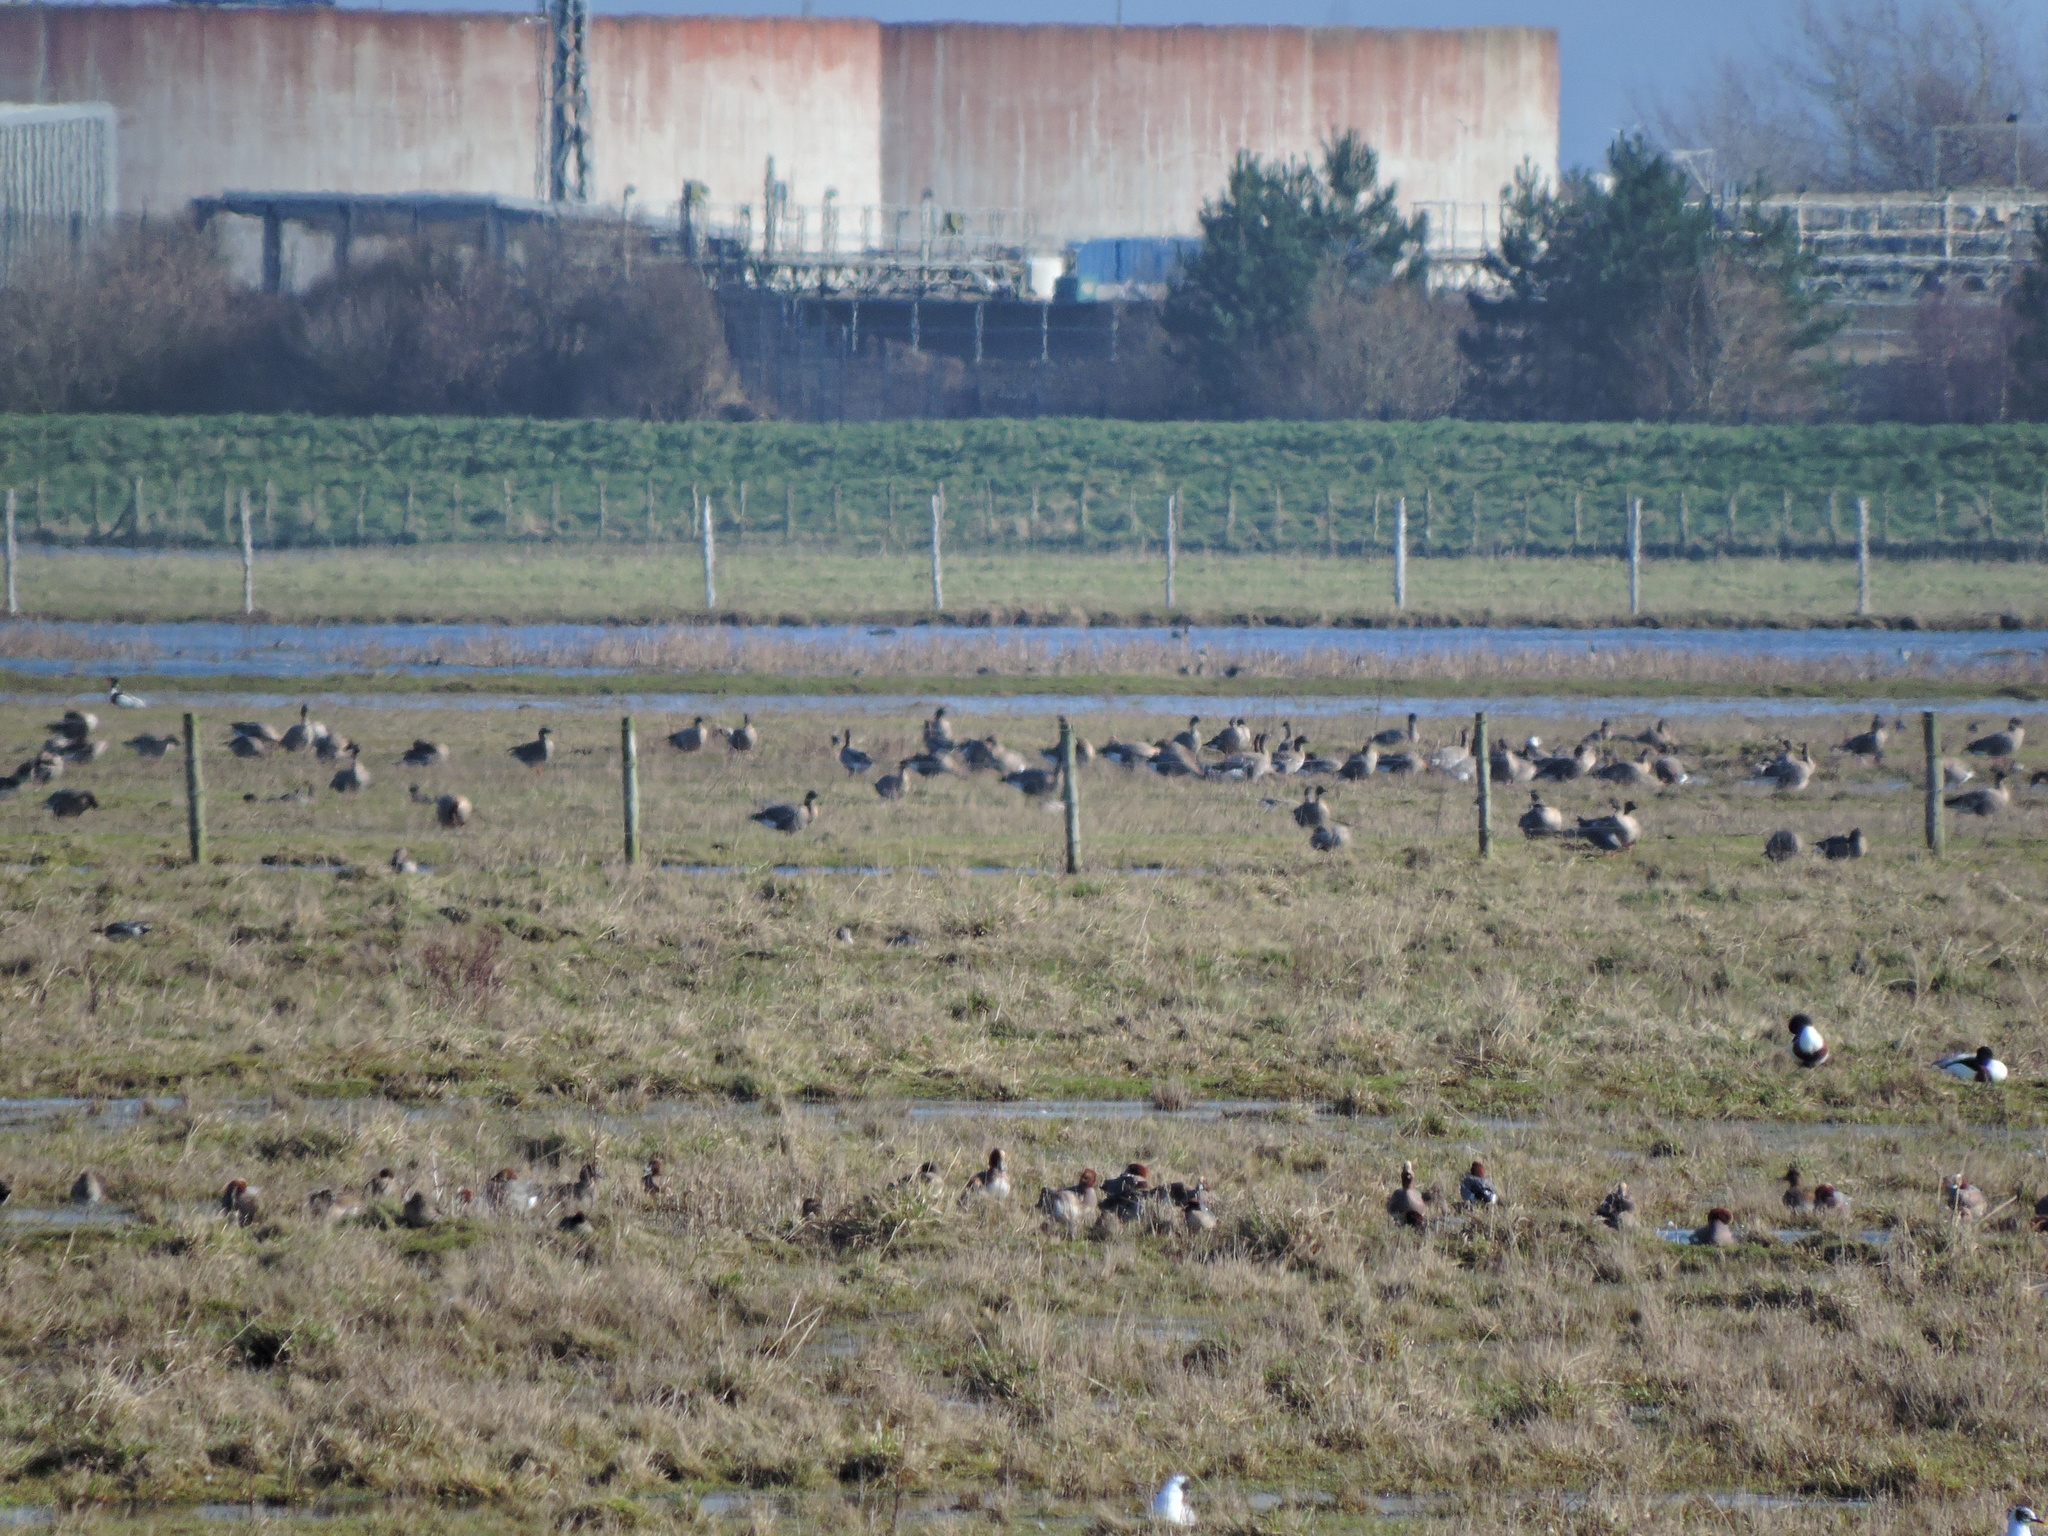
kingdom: Animalia
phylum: Chordata
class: Aves
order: Anseriformes
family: Anatidae
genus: Anser
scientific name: Anser brachyrhynchus
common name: Pink-footed goose
